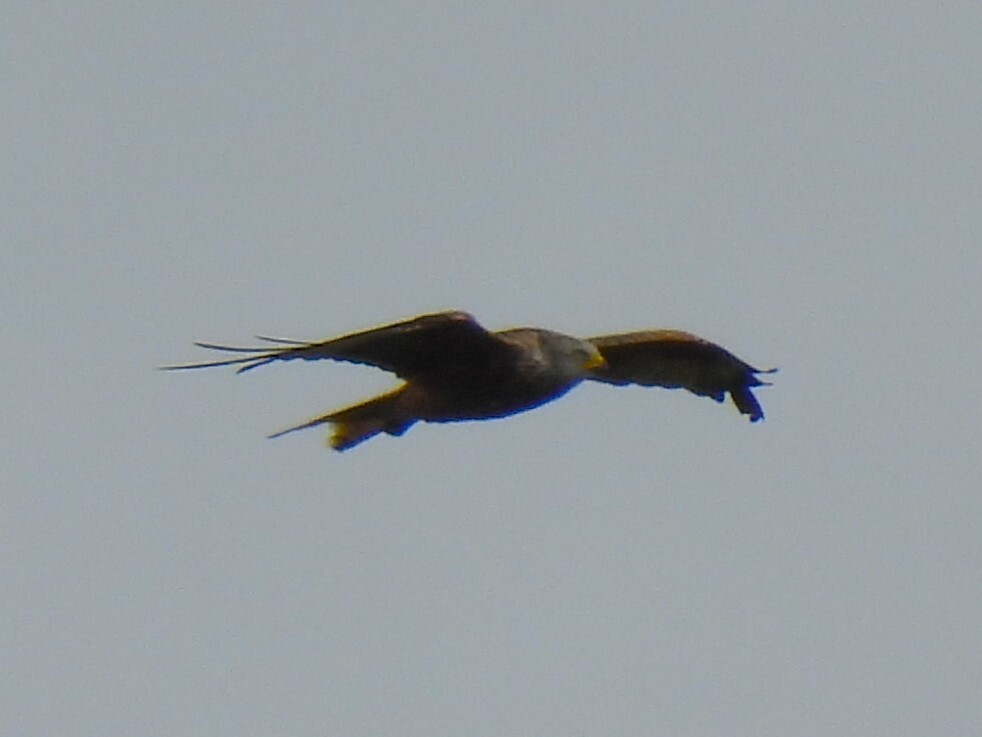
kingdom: Animalia
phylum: Chordata
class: Aves
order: Accipitriformes
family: Accipitridae
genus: Milvus
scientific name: Milvus milvus
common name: Red kite
